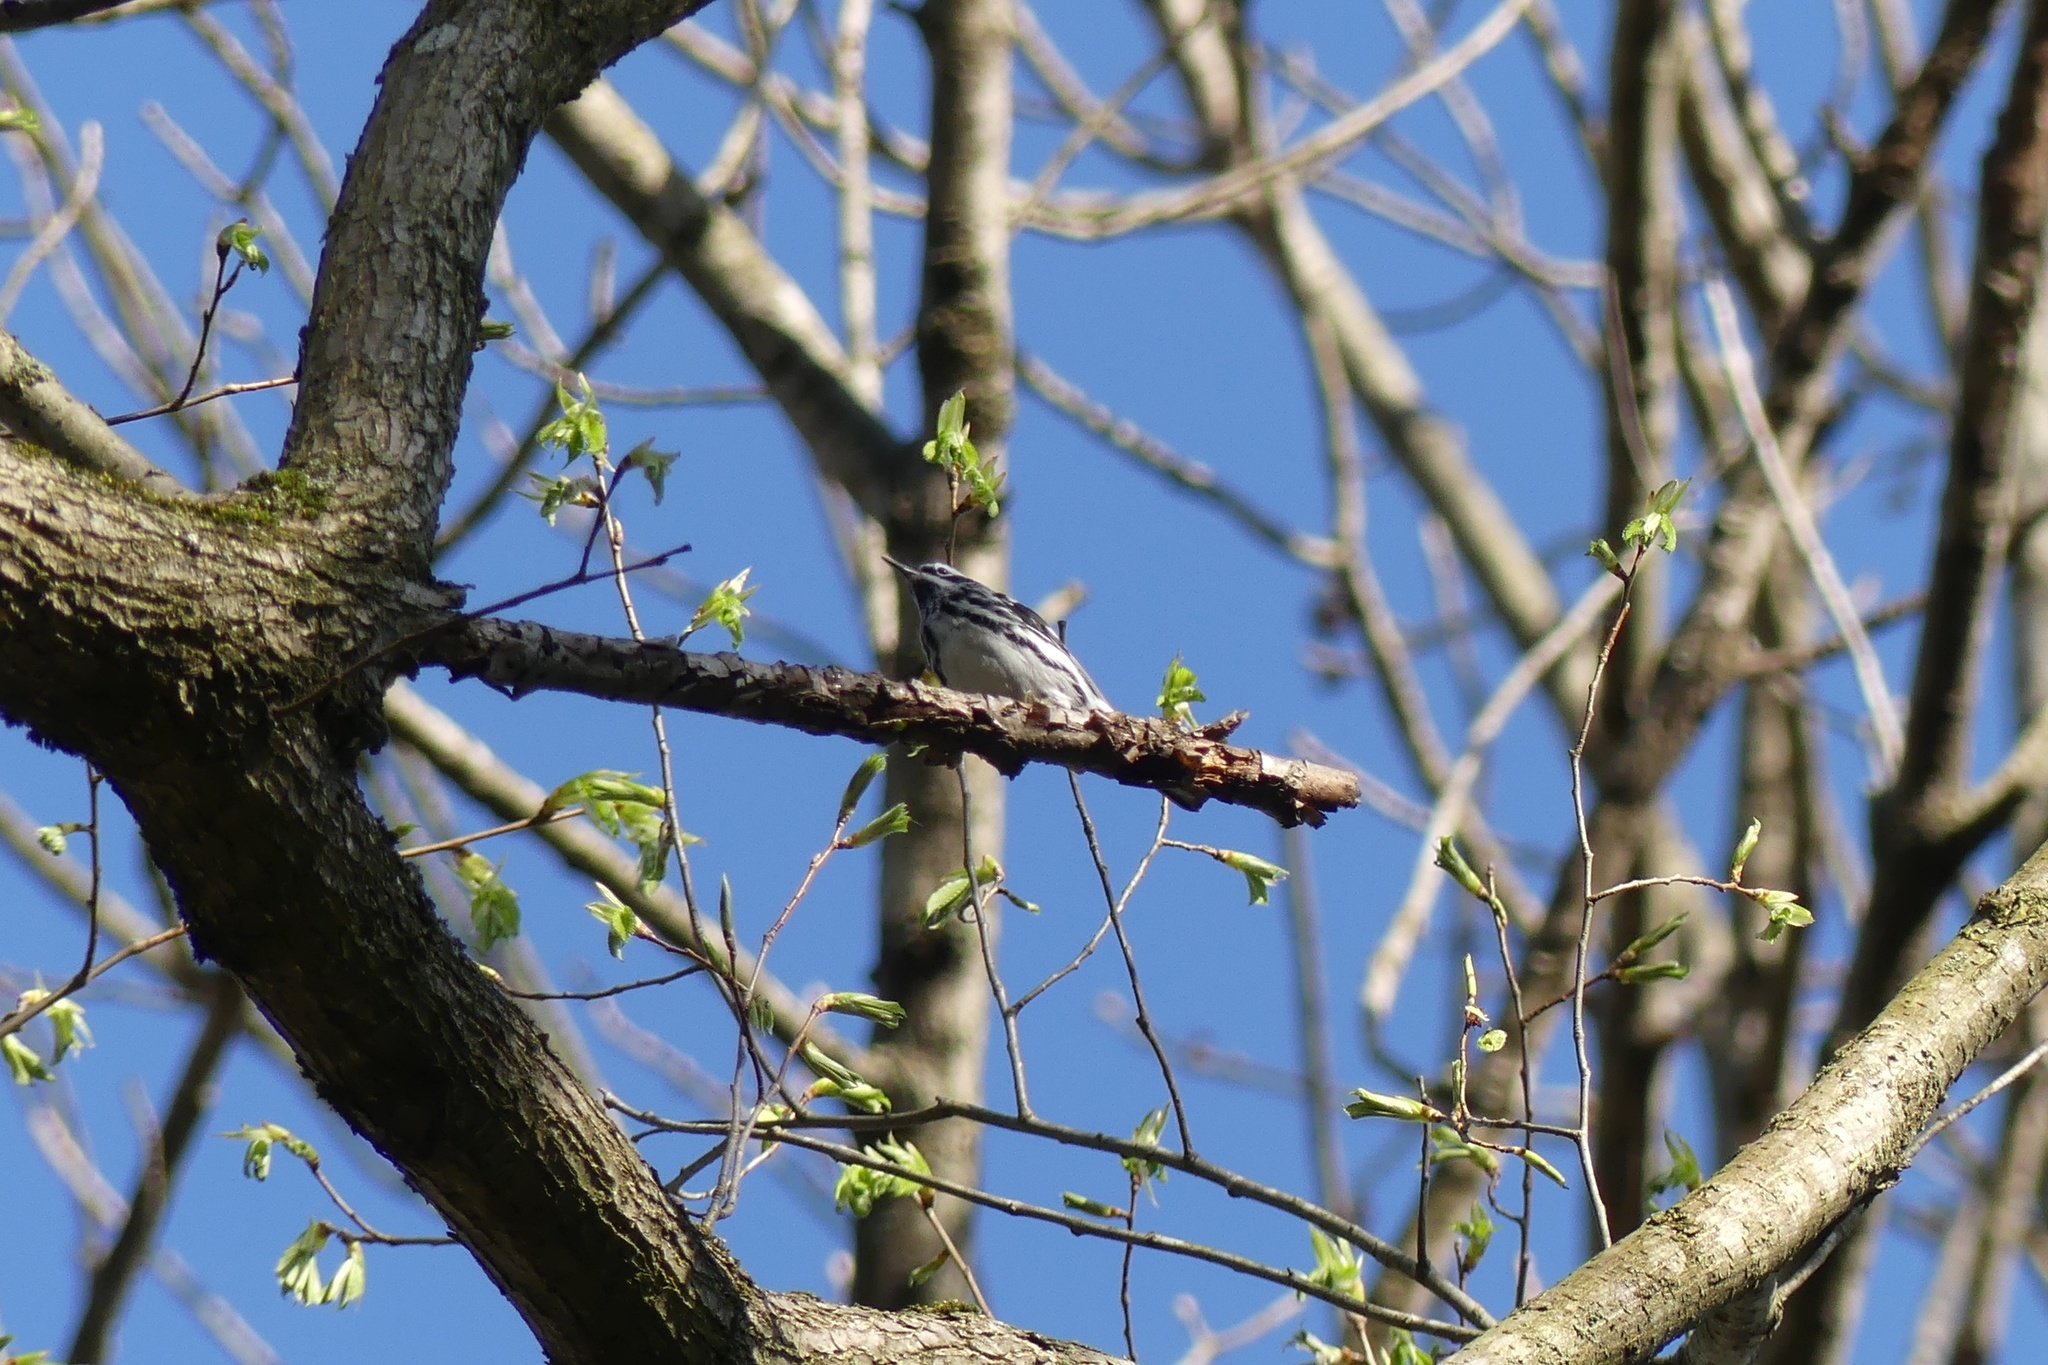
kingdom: Animalia
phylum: Chordata
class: Aves
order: Passeriformes
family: Parulidae
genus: Mniotilta
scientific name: Mniotilta varia
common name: Black-and-white warbler
